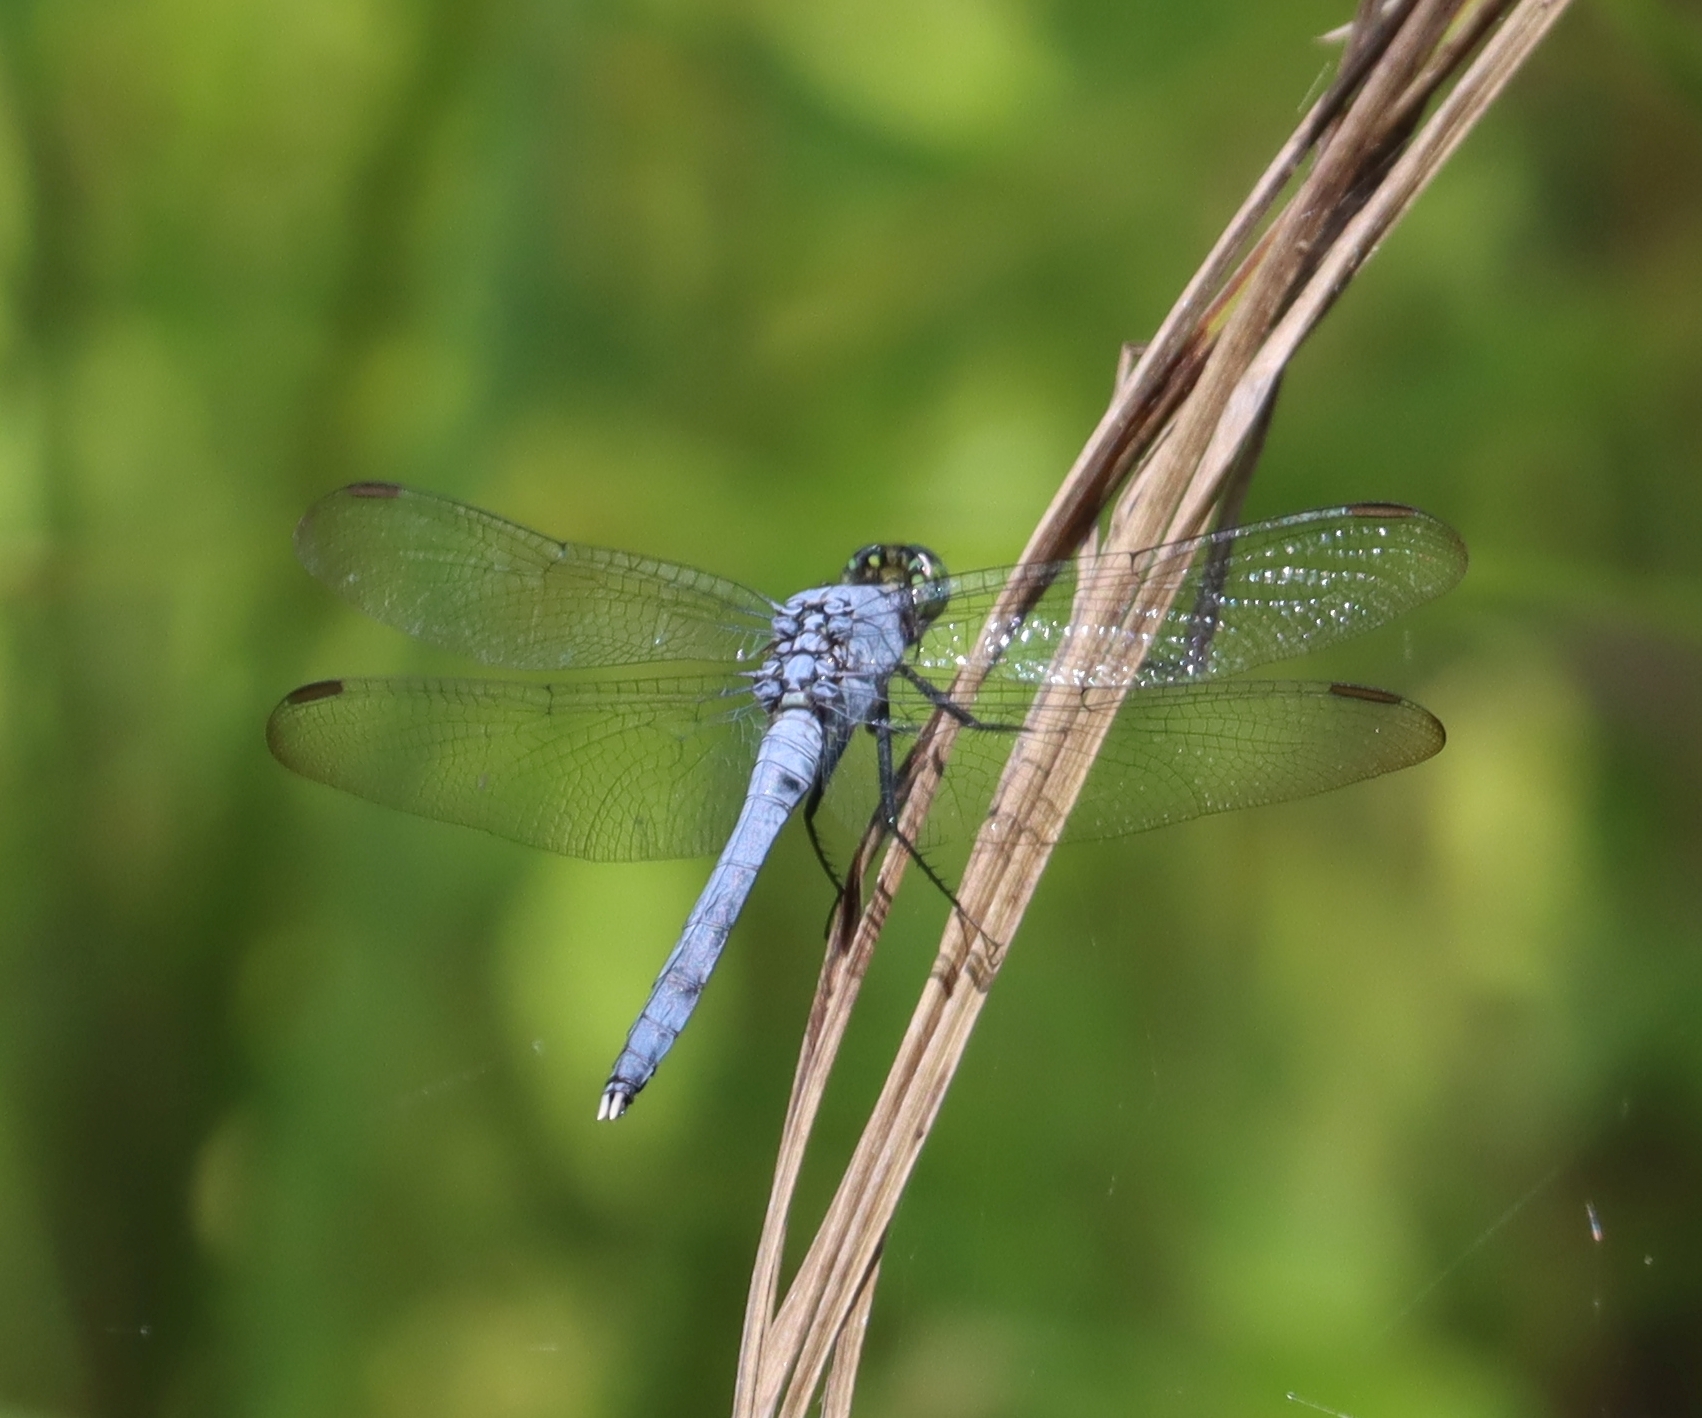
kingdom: Animalia
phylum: Arthropoda
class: Insecta
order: Odonata
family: Libellulidae
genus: Erythemis
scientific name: Erythemis simplicicollis
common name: Eastern pondhawk
